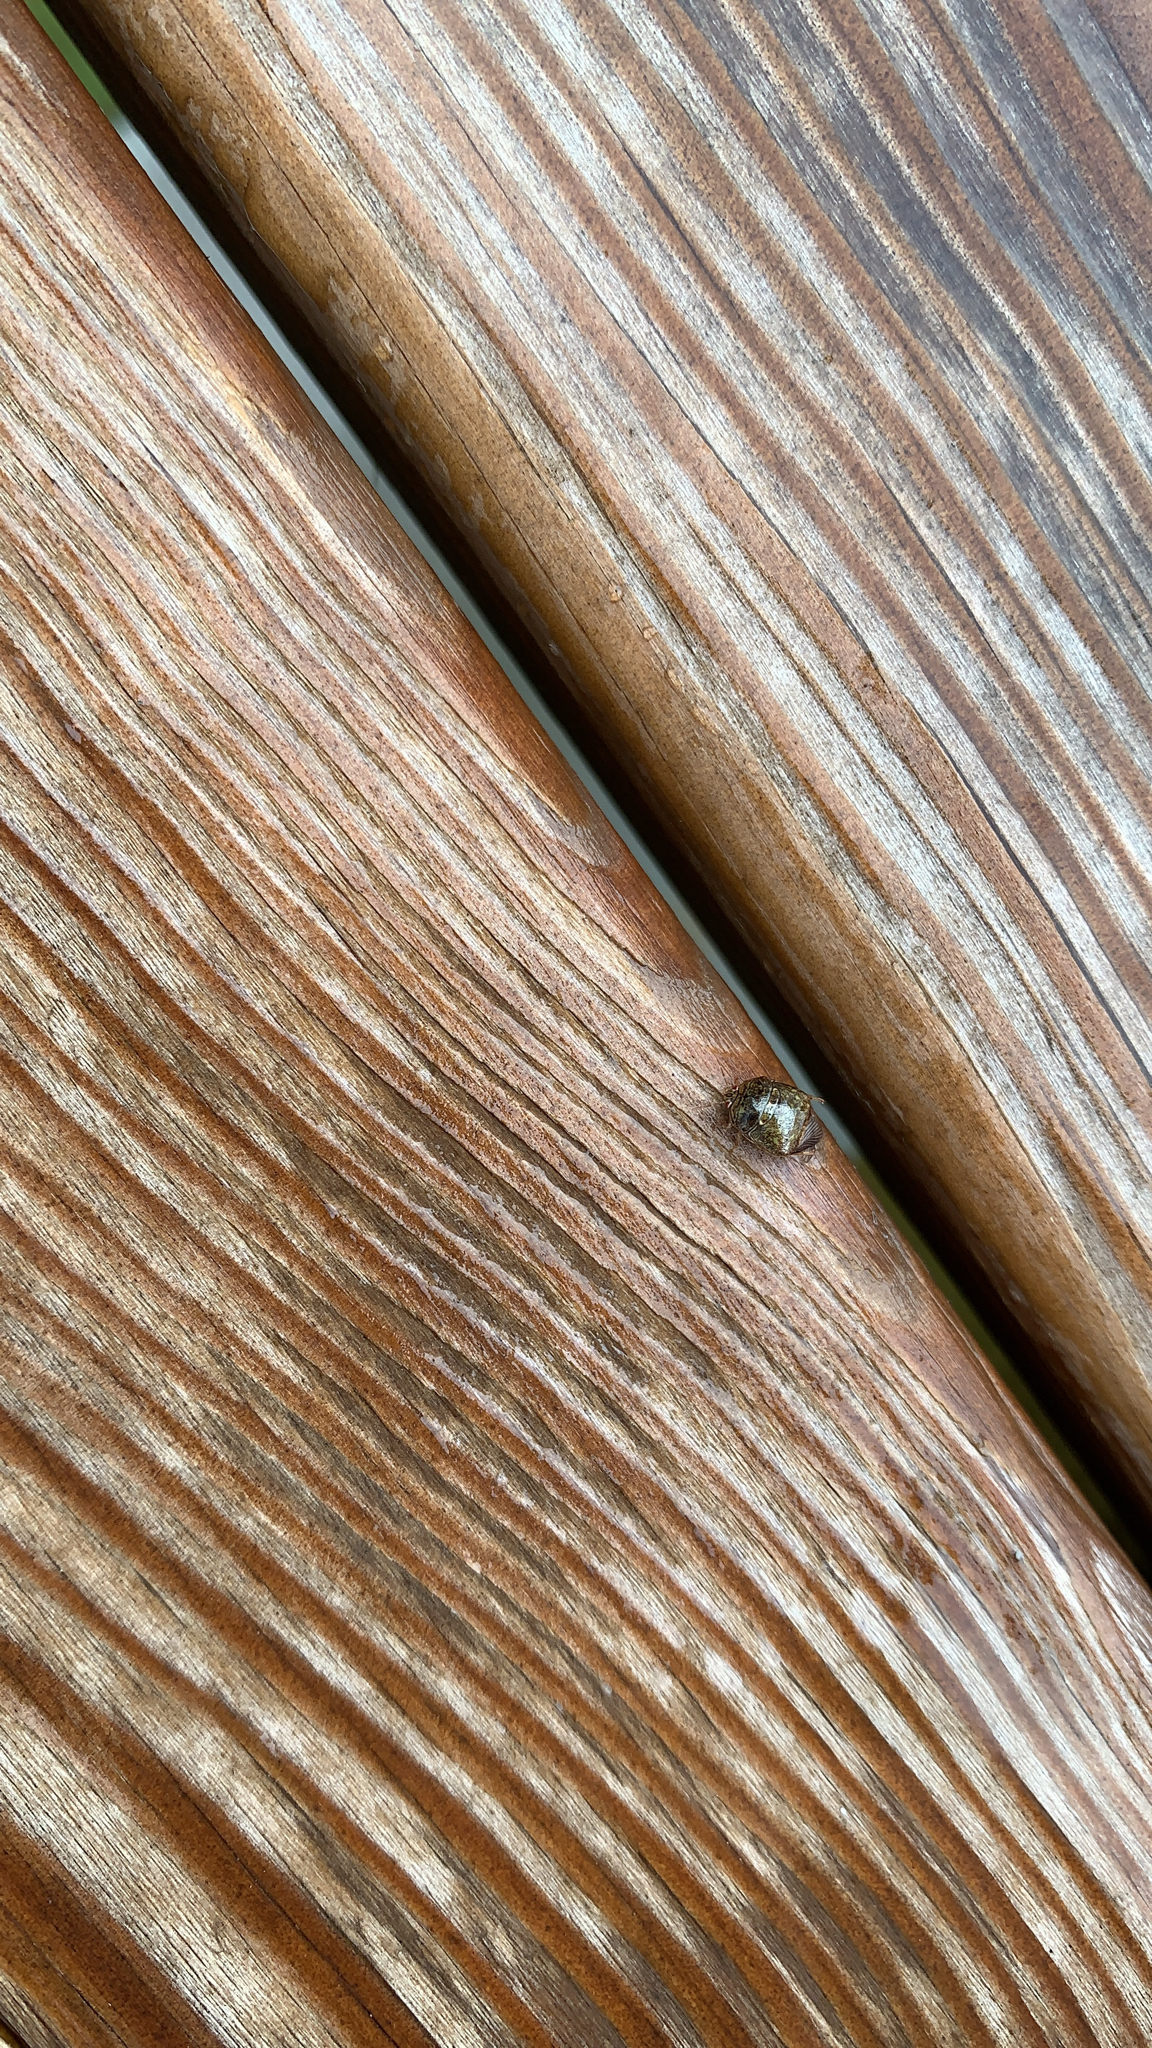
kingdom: Animalia
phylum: Arthropoda
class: Insecta
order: Hemiptera
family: Plataspidae
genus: Megacopta
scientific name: Megacopta cribraria
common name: Bean plataspid
